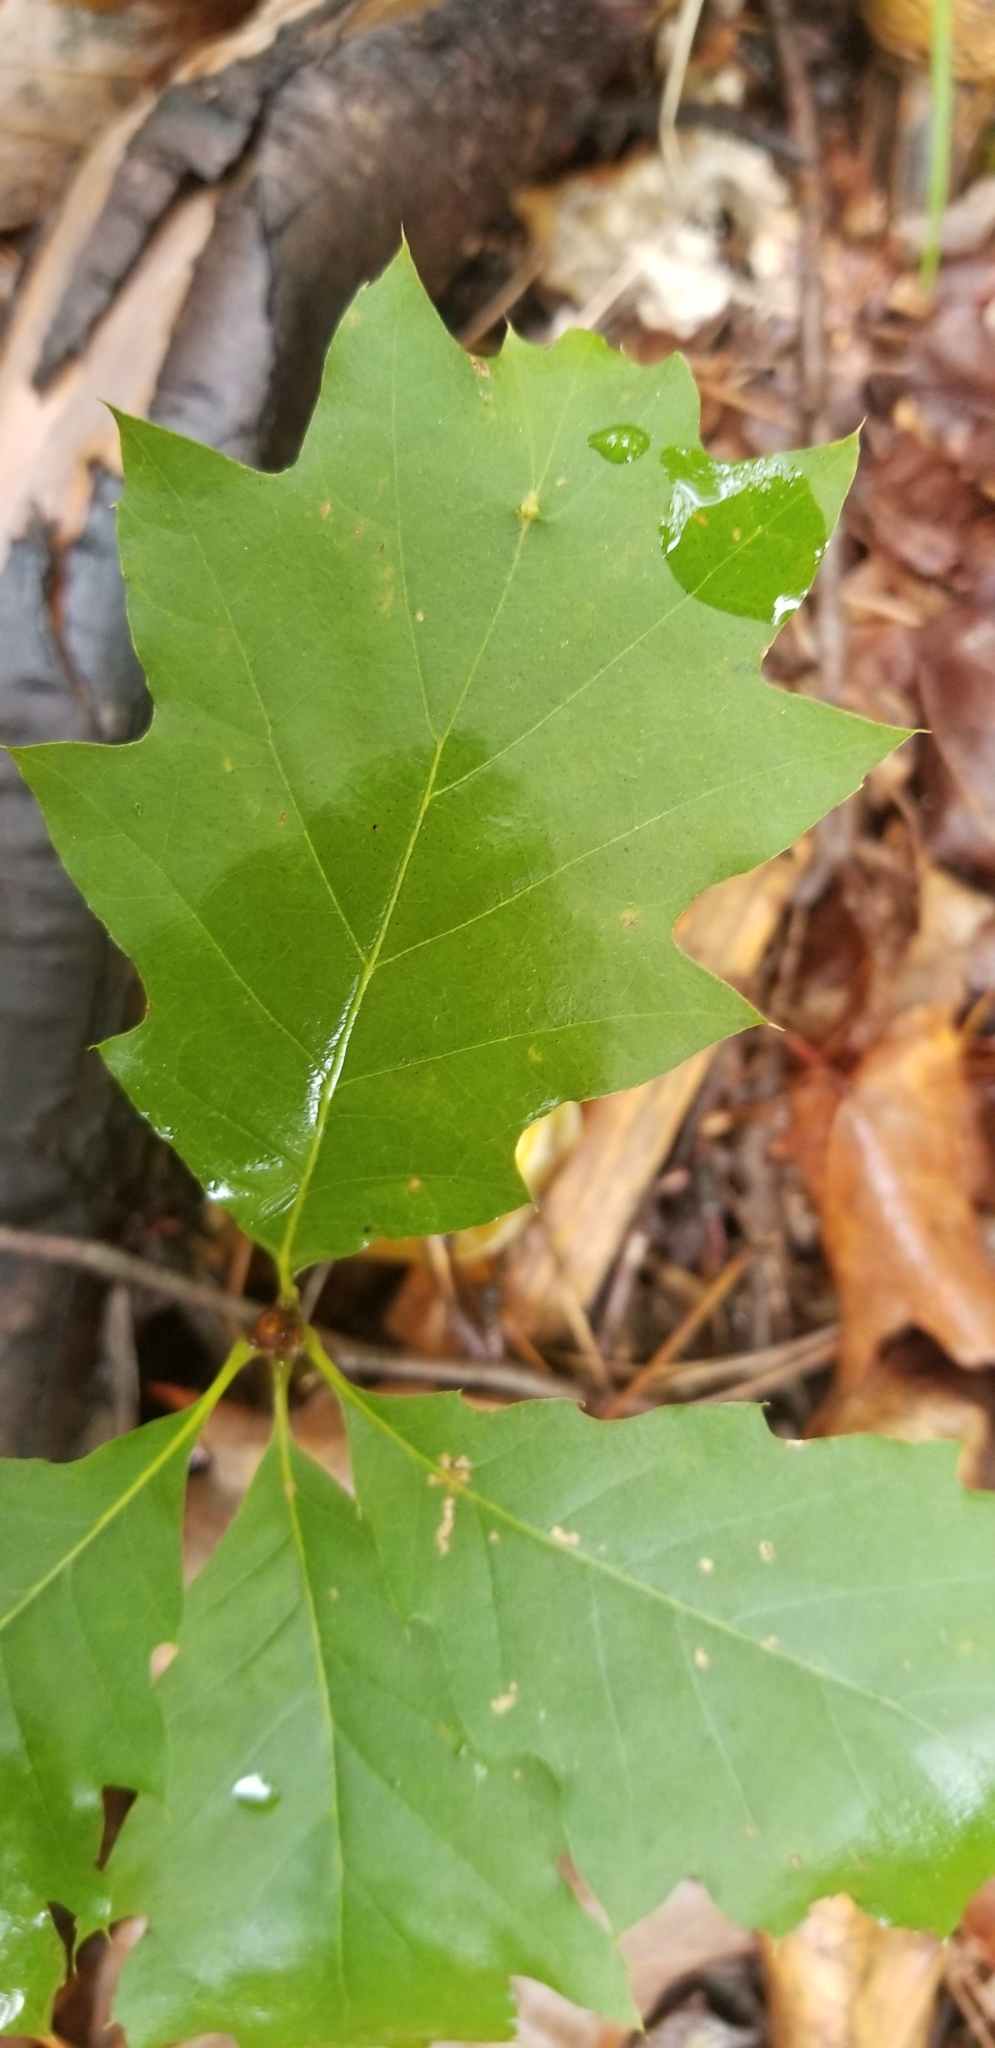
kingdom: Plantae
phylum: Tracheophyta
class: Magnoliopsida
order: Fagales
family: Fagaceae
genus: Quercus
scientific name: Quercus rubra
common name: Red oak
